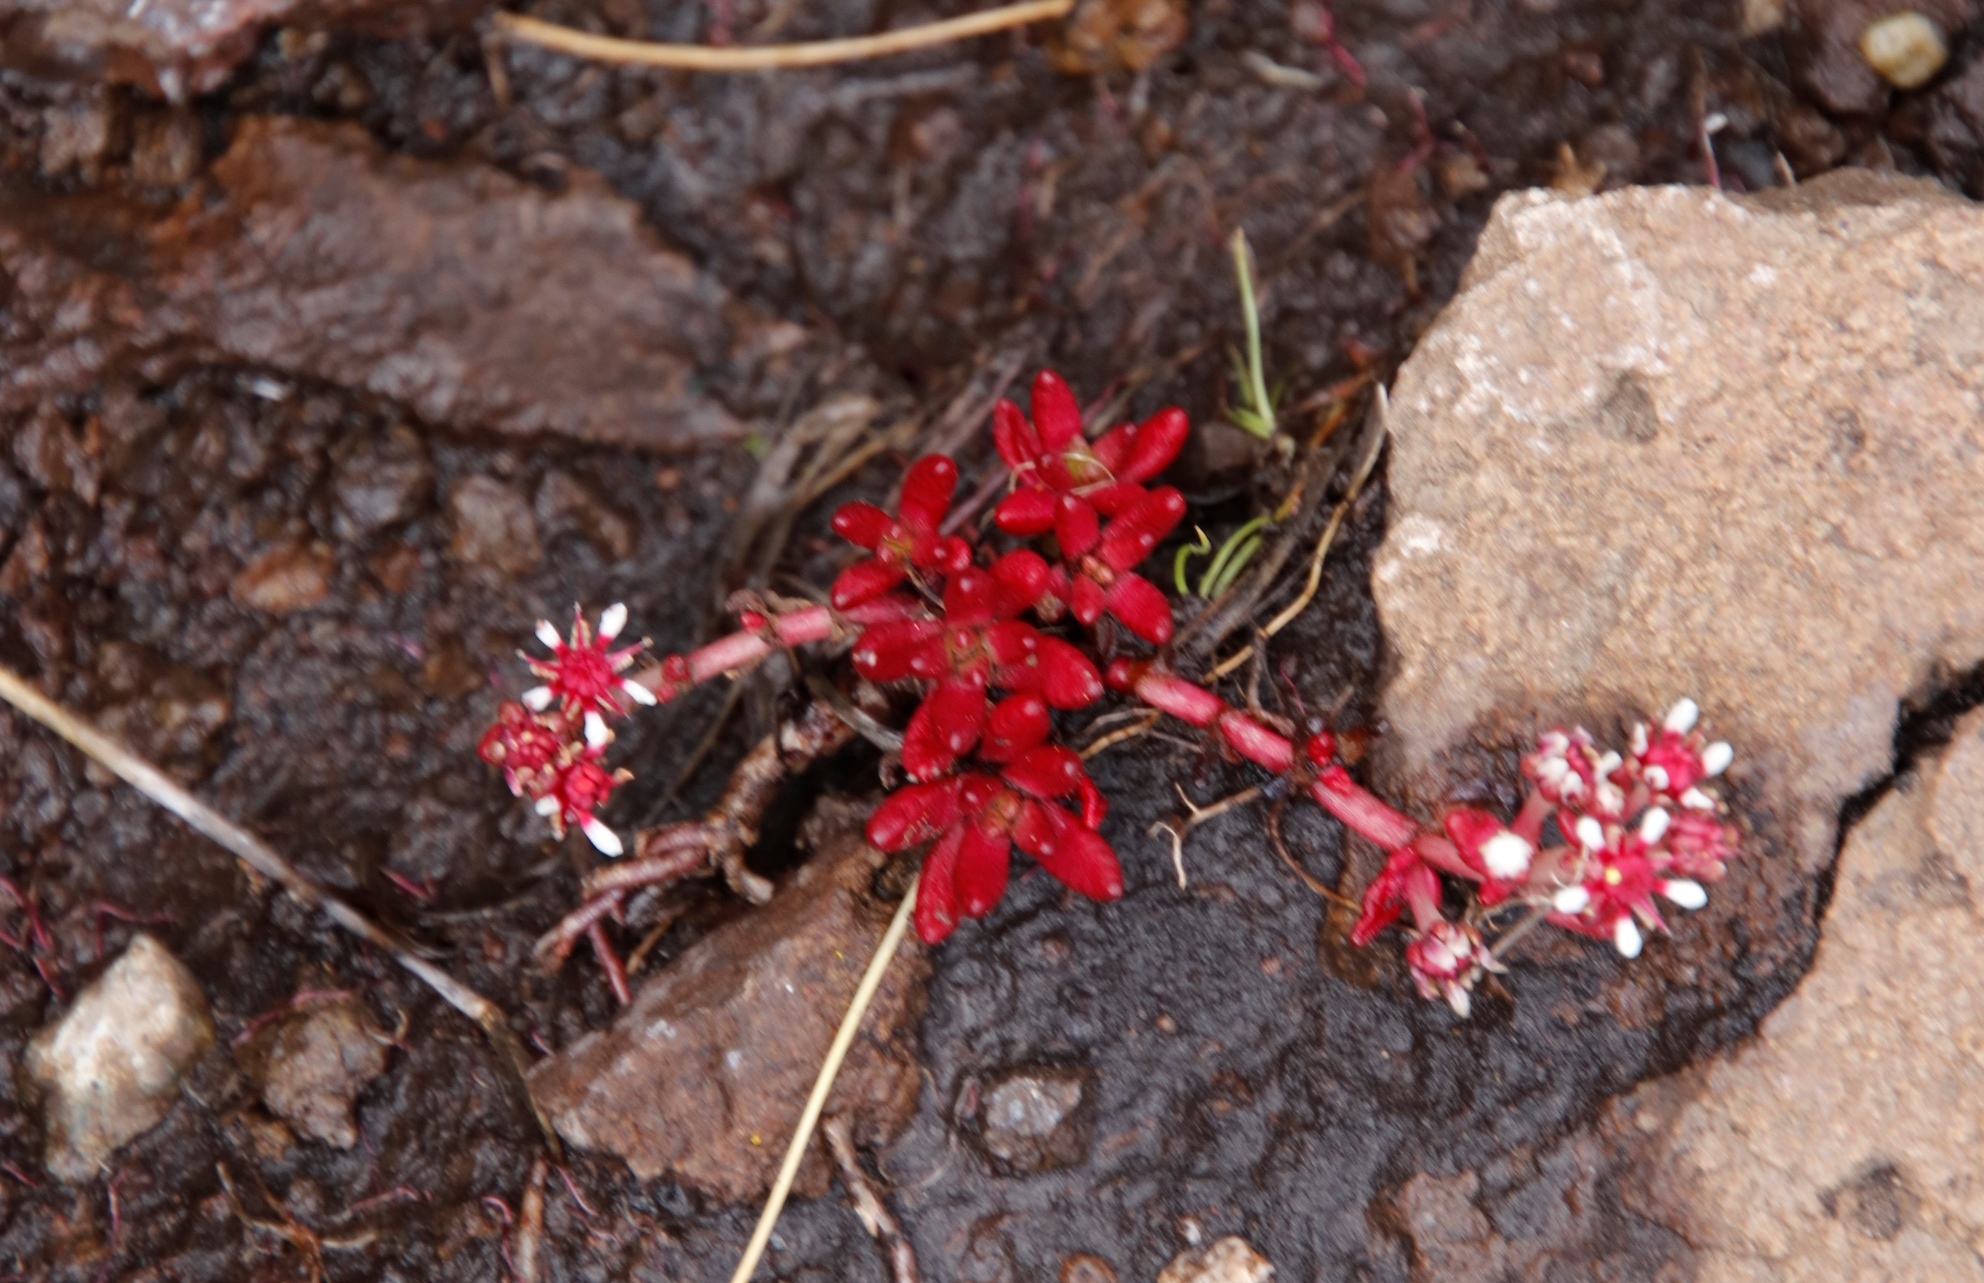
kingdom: Plantae
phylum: Tracheophyta
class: Magnoliopsida
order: Saxifragales
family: Crassulaceae
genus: Crassula
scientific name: Crassula peploides
